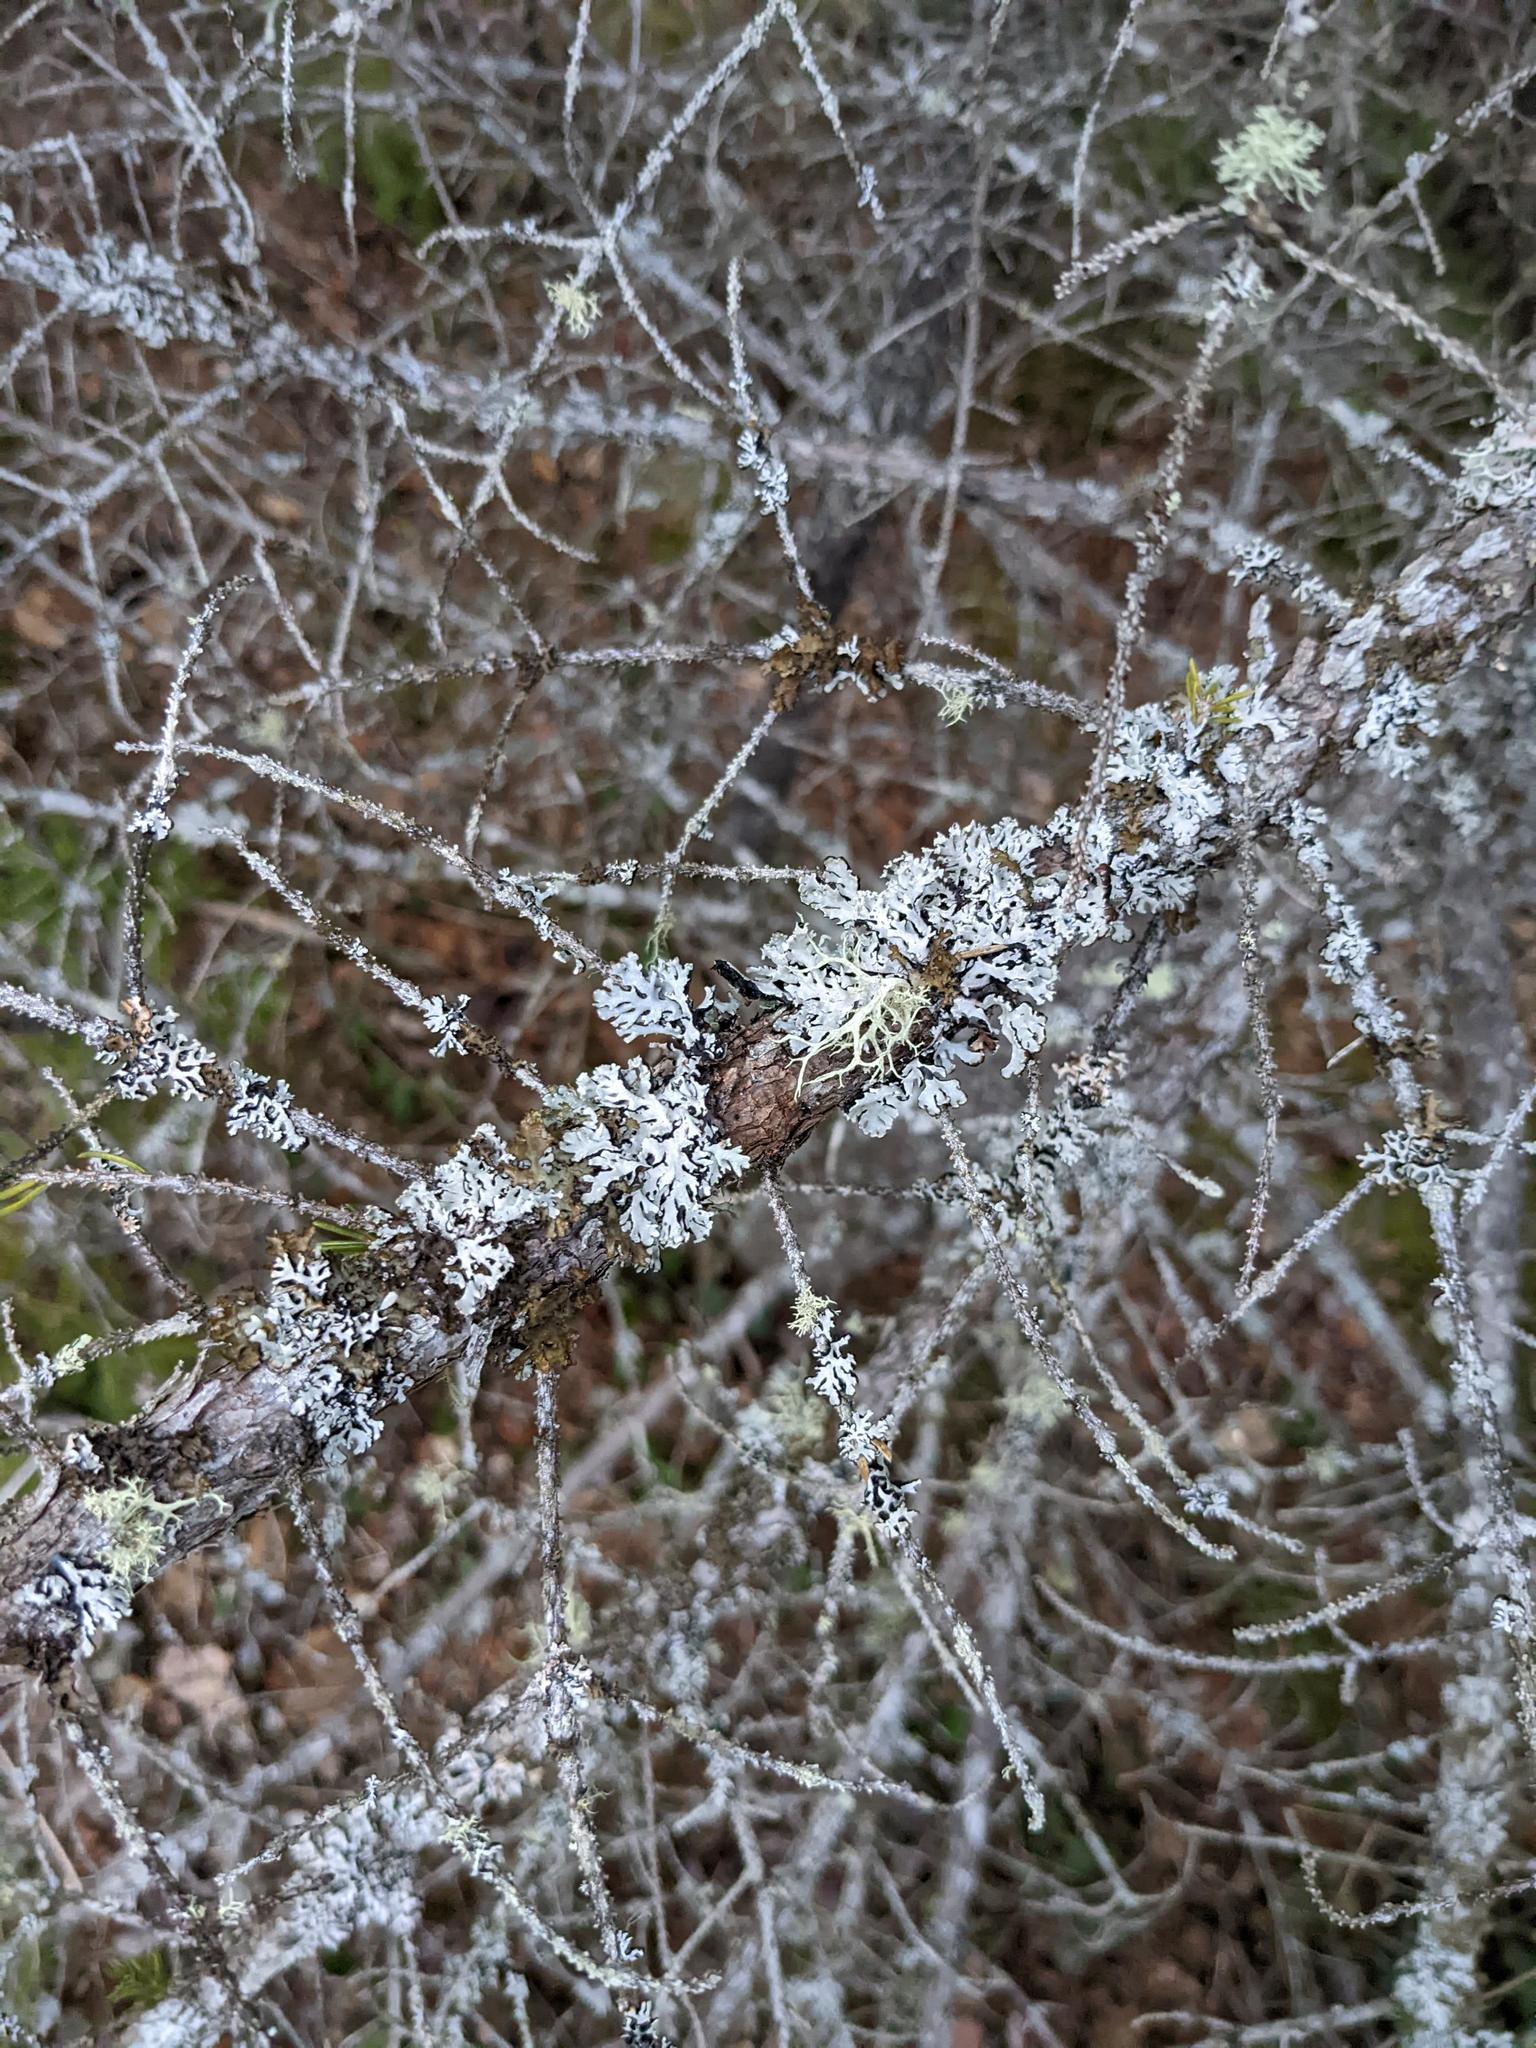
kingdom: Fungi
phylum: Ascomycota
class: Lecanoromycetes
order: Lecanorales
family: Parmeliaceae
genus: Hypogymnia
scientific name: Hypogymnia physodes
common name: Dark crottle
